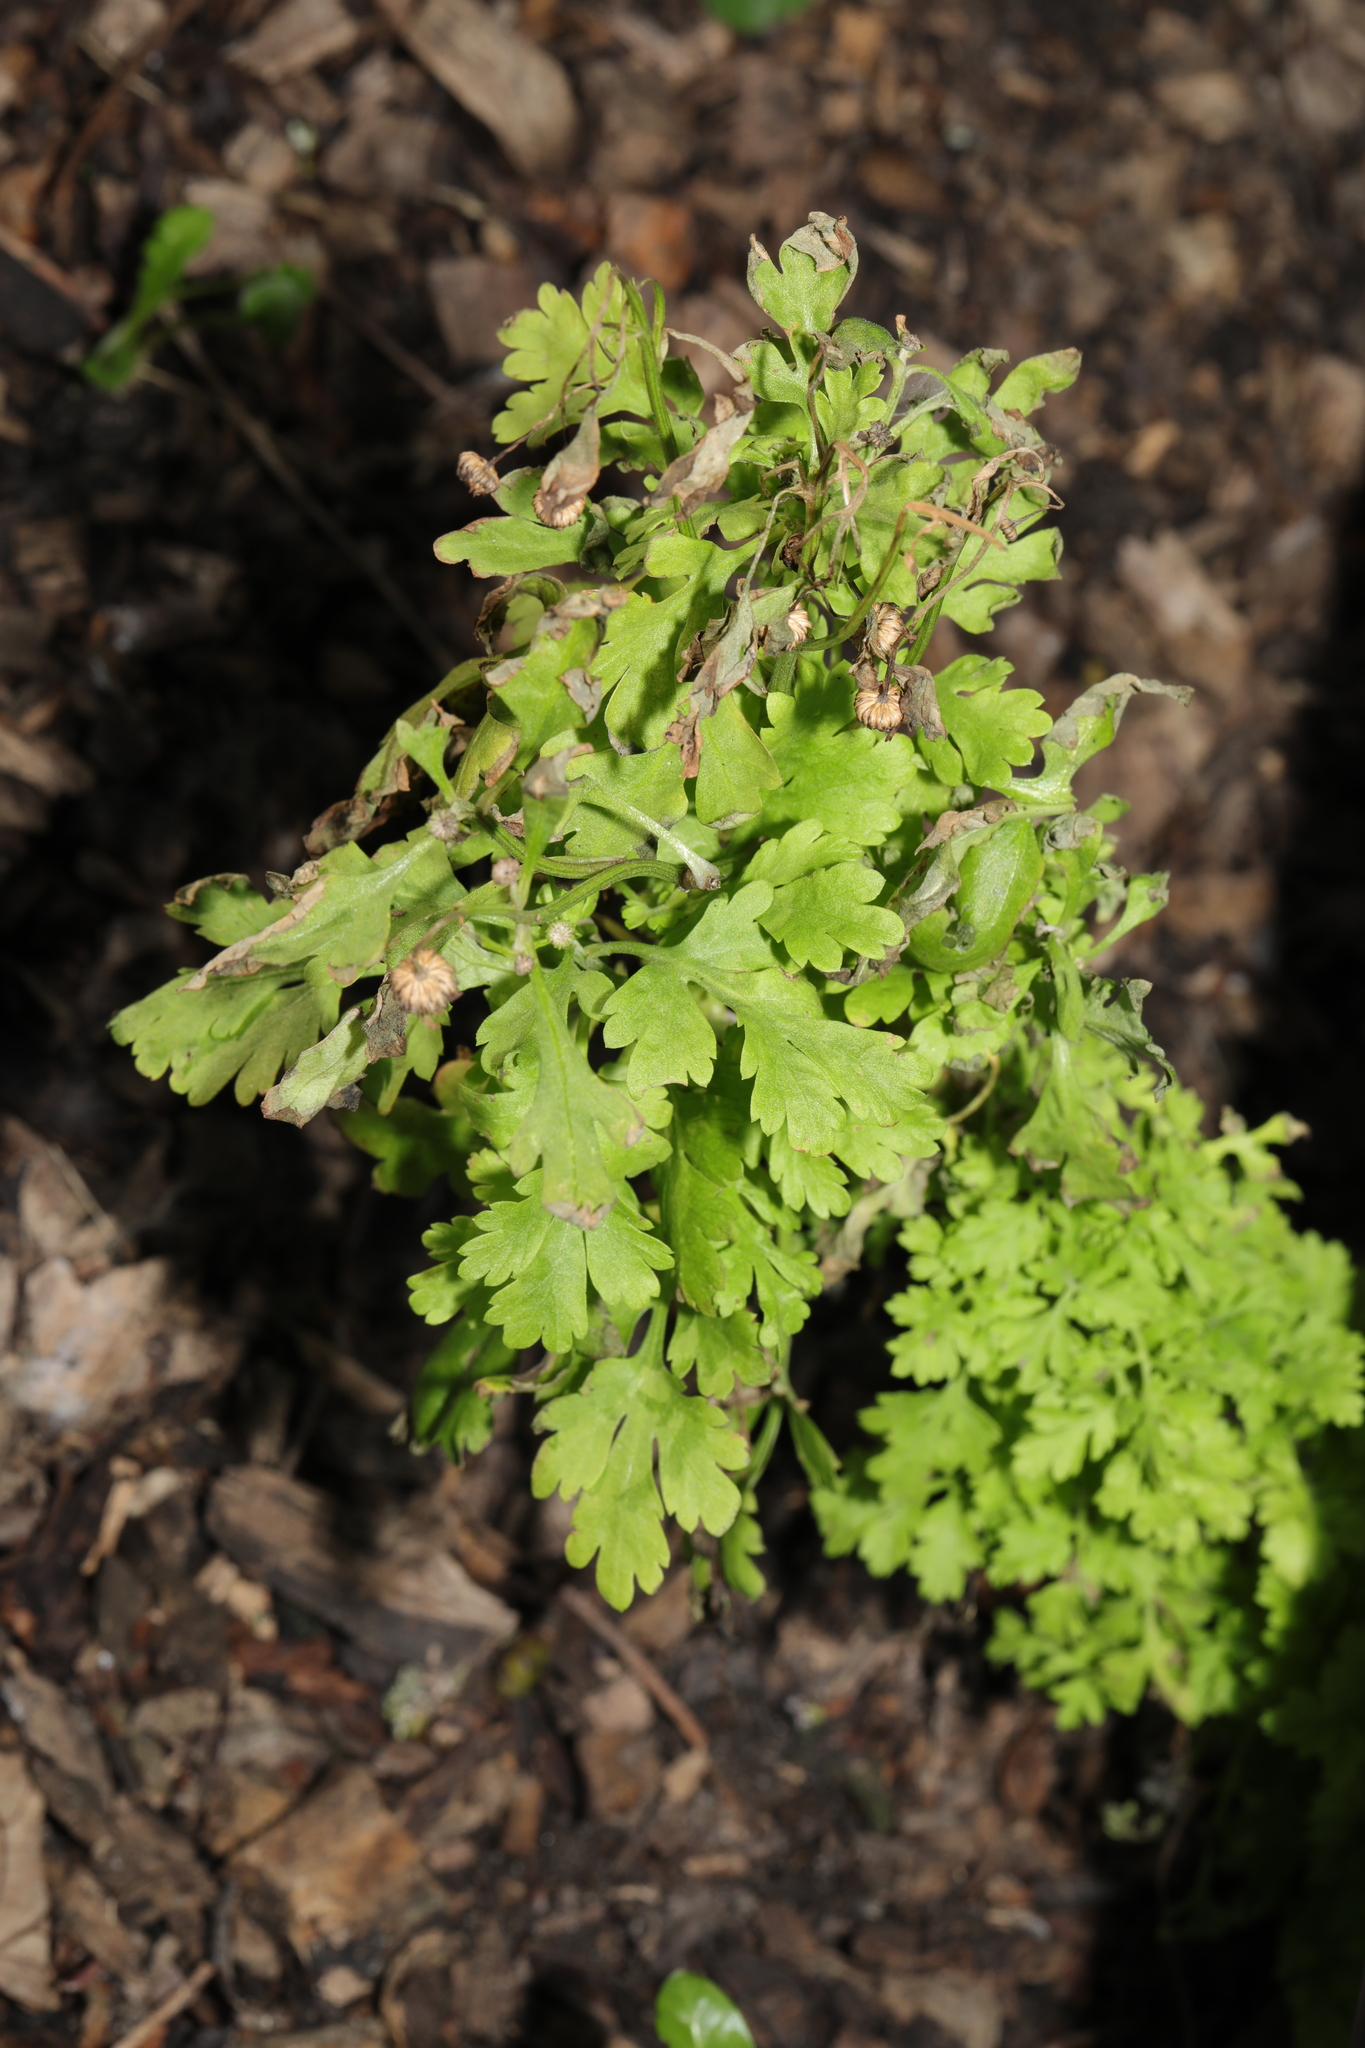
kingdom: Plantae
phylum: Tracheophyta
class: Magnoliopsida
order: Asterales
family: Asteraceae
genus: Tanacetum
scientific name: Tanacetum parthenium
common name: Feverfew
